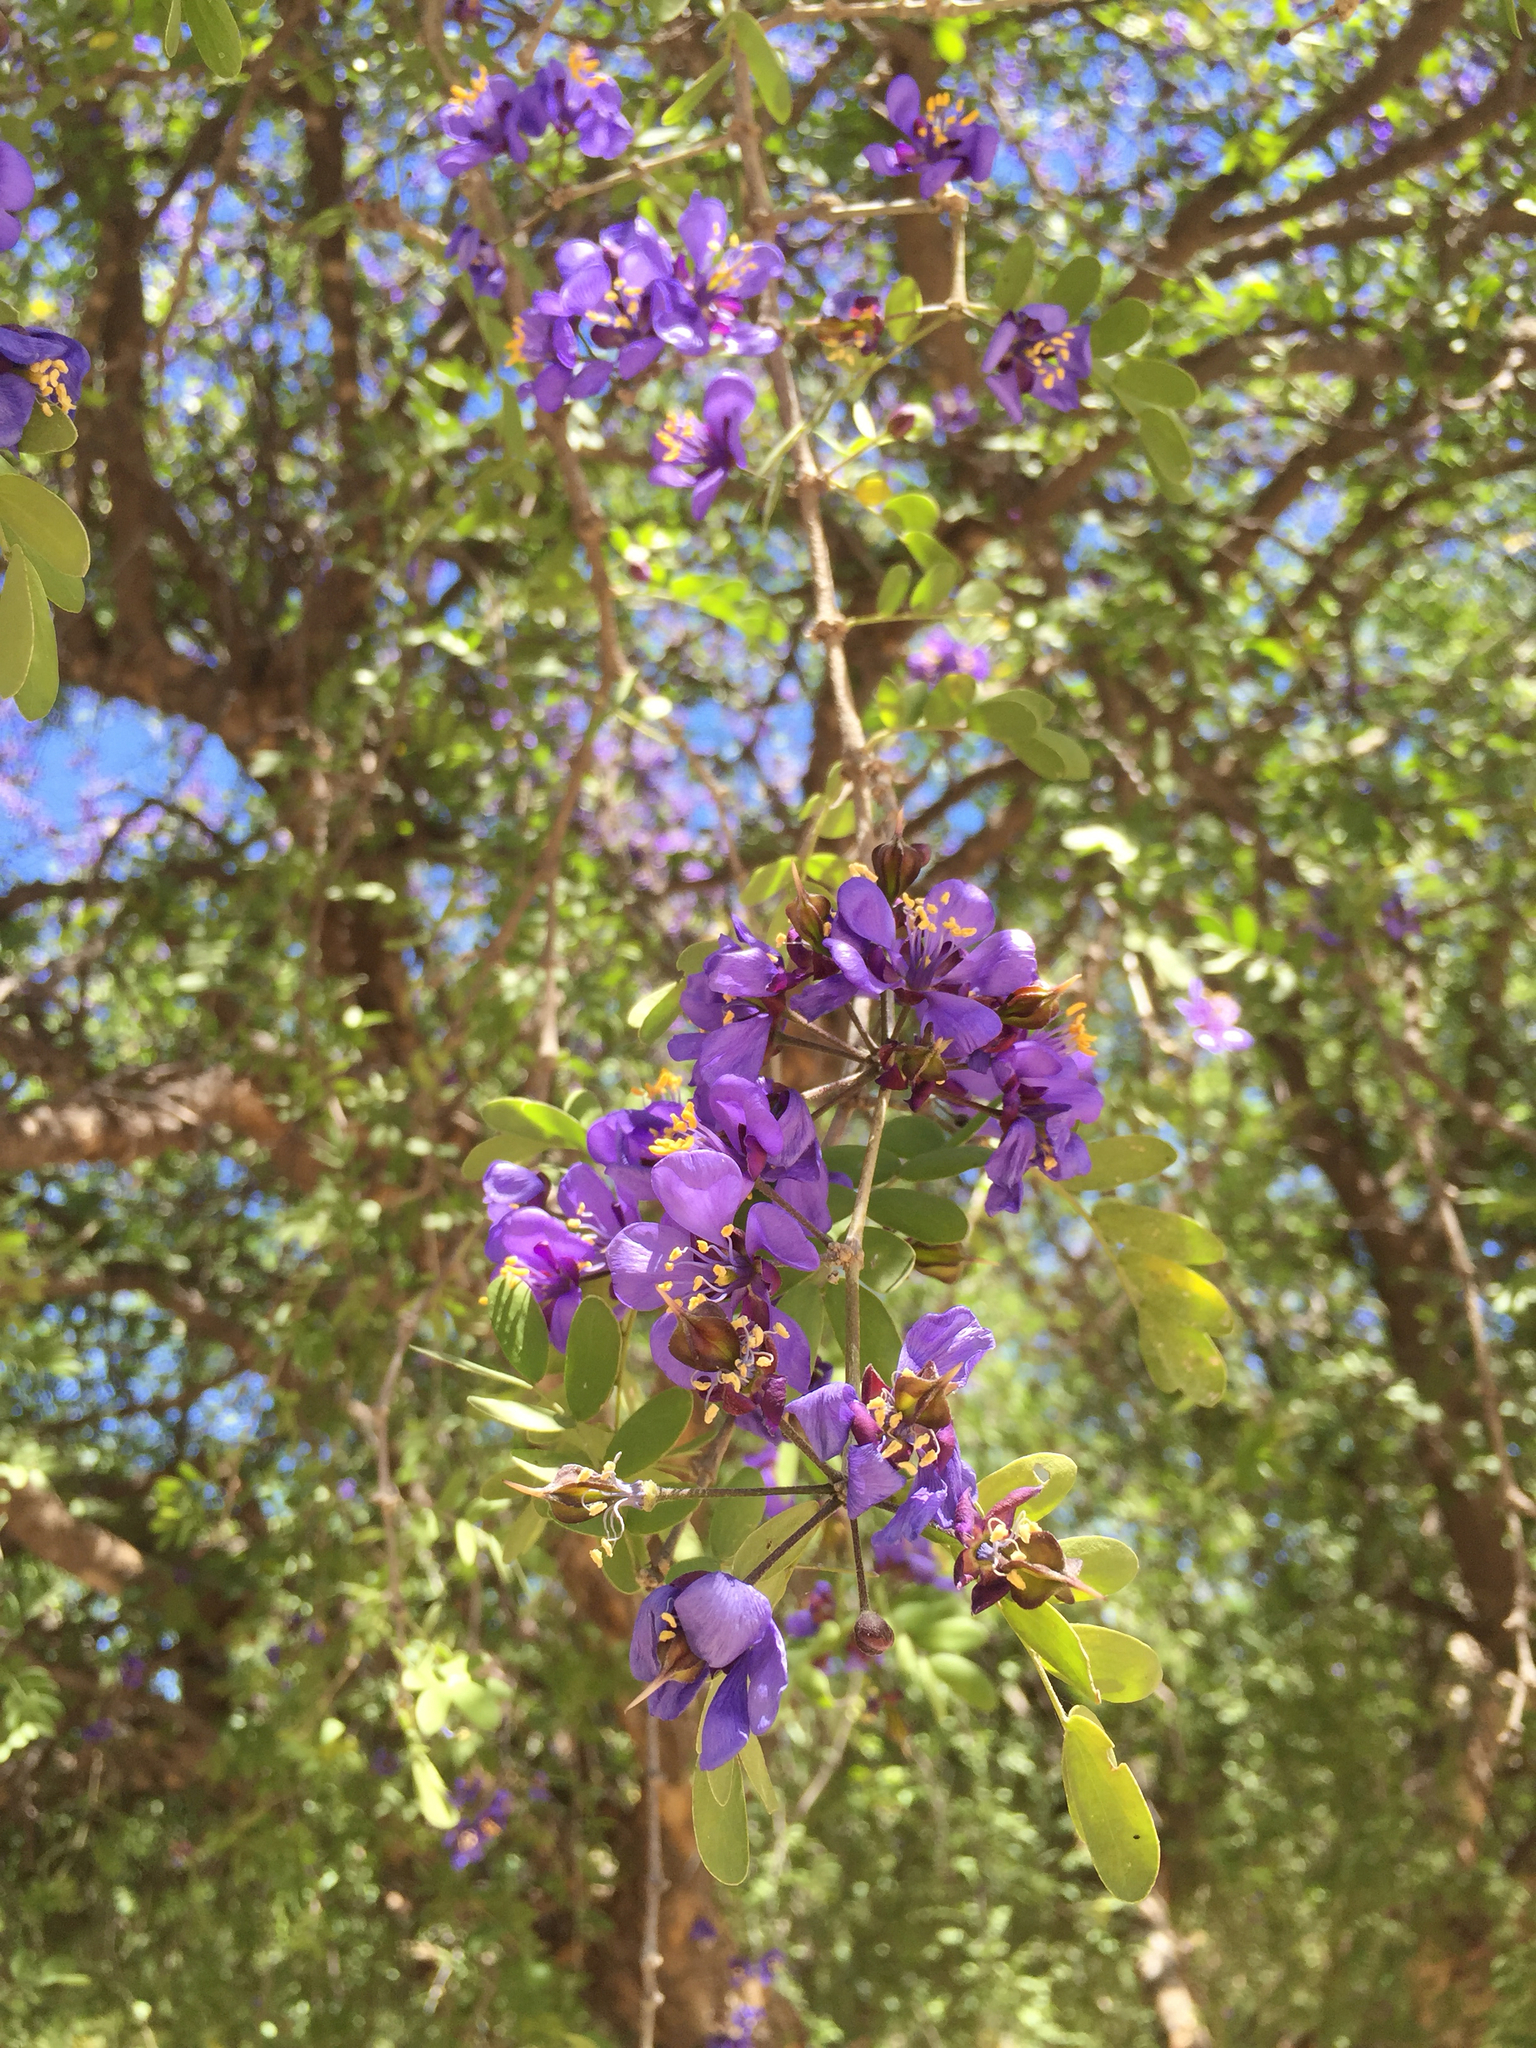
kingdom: Plantae
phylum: Tracheophyta
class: Magnoliopsida
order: Zygophyllales
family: Zygophyllaceae
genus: Guaiacum
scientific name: Guaiacum coulteri
